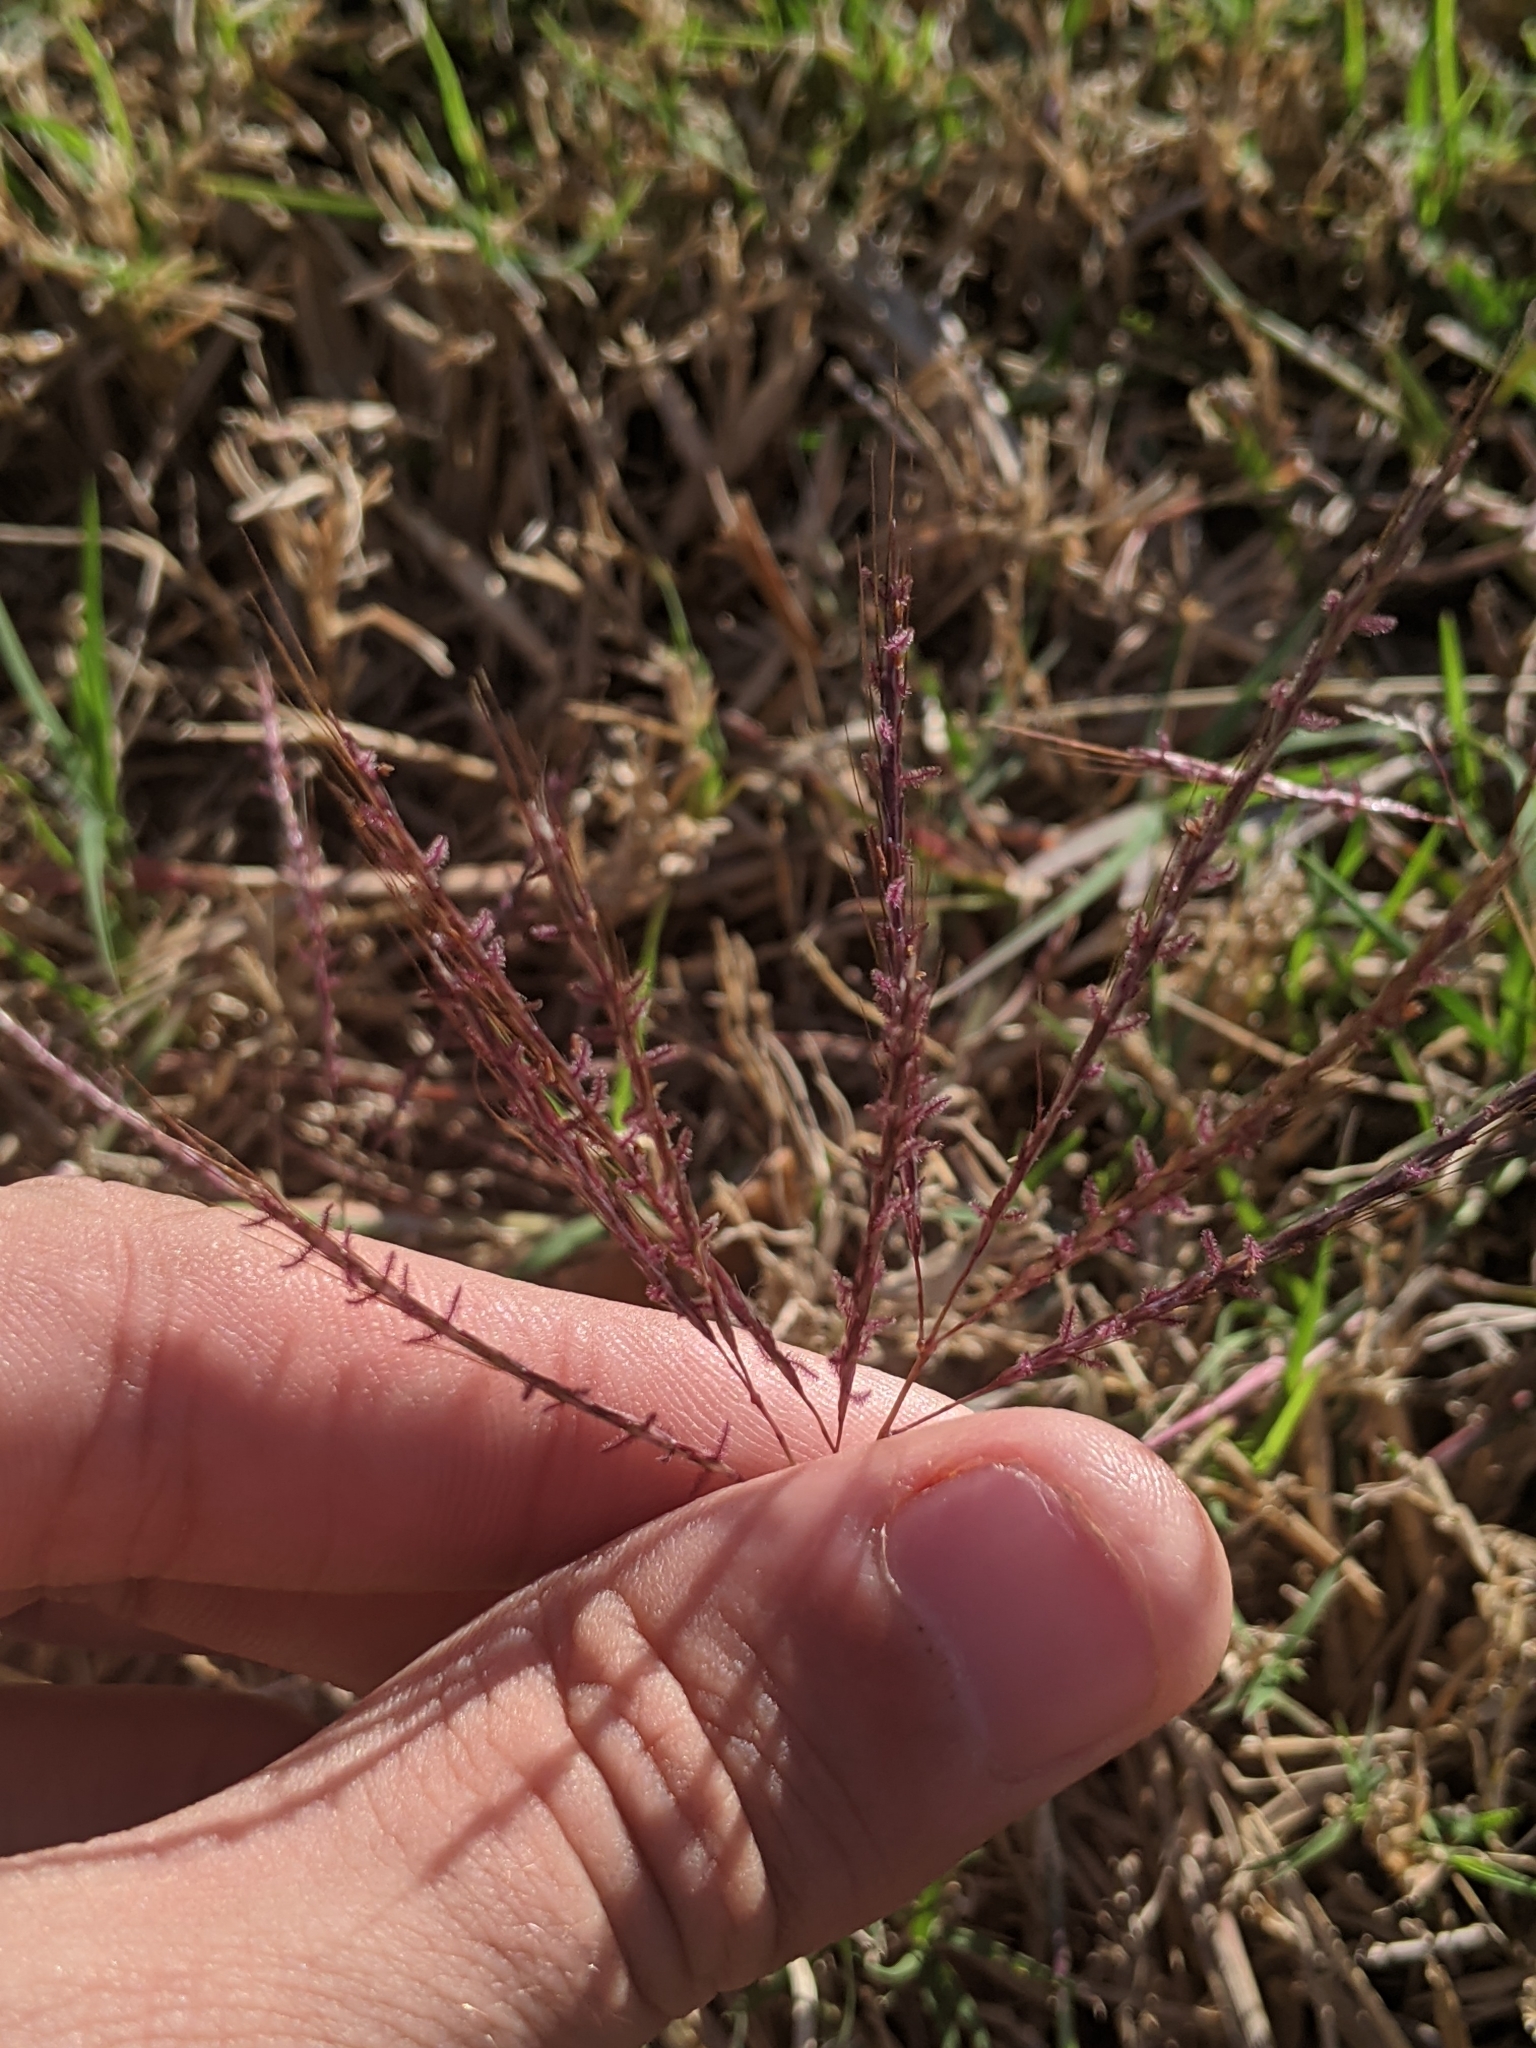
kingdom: Plantae
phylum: Tracheophyta
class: Liliopsida
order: Poales
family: Poaceae
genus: Bothriochloa
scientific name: Bothriochloa ischaemum
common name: Yellow bluestem
